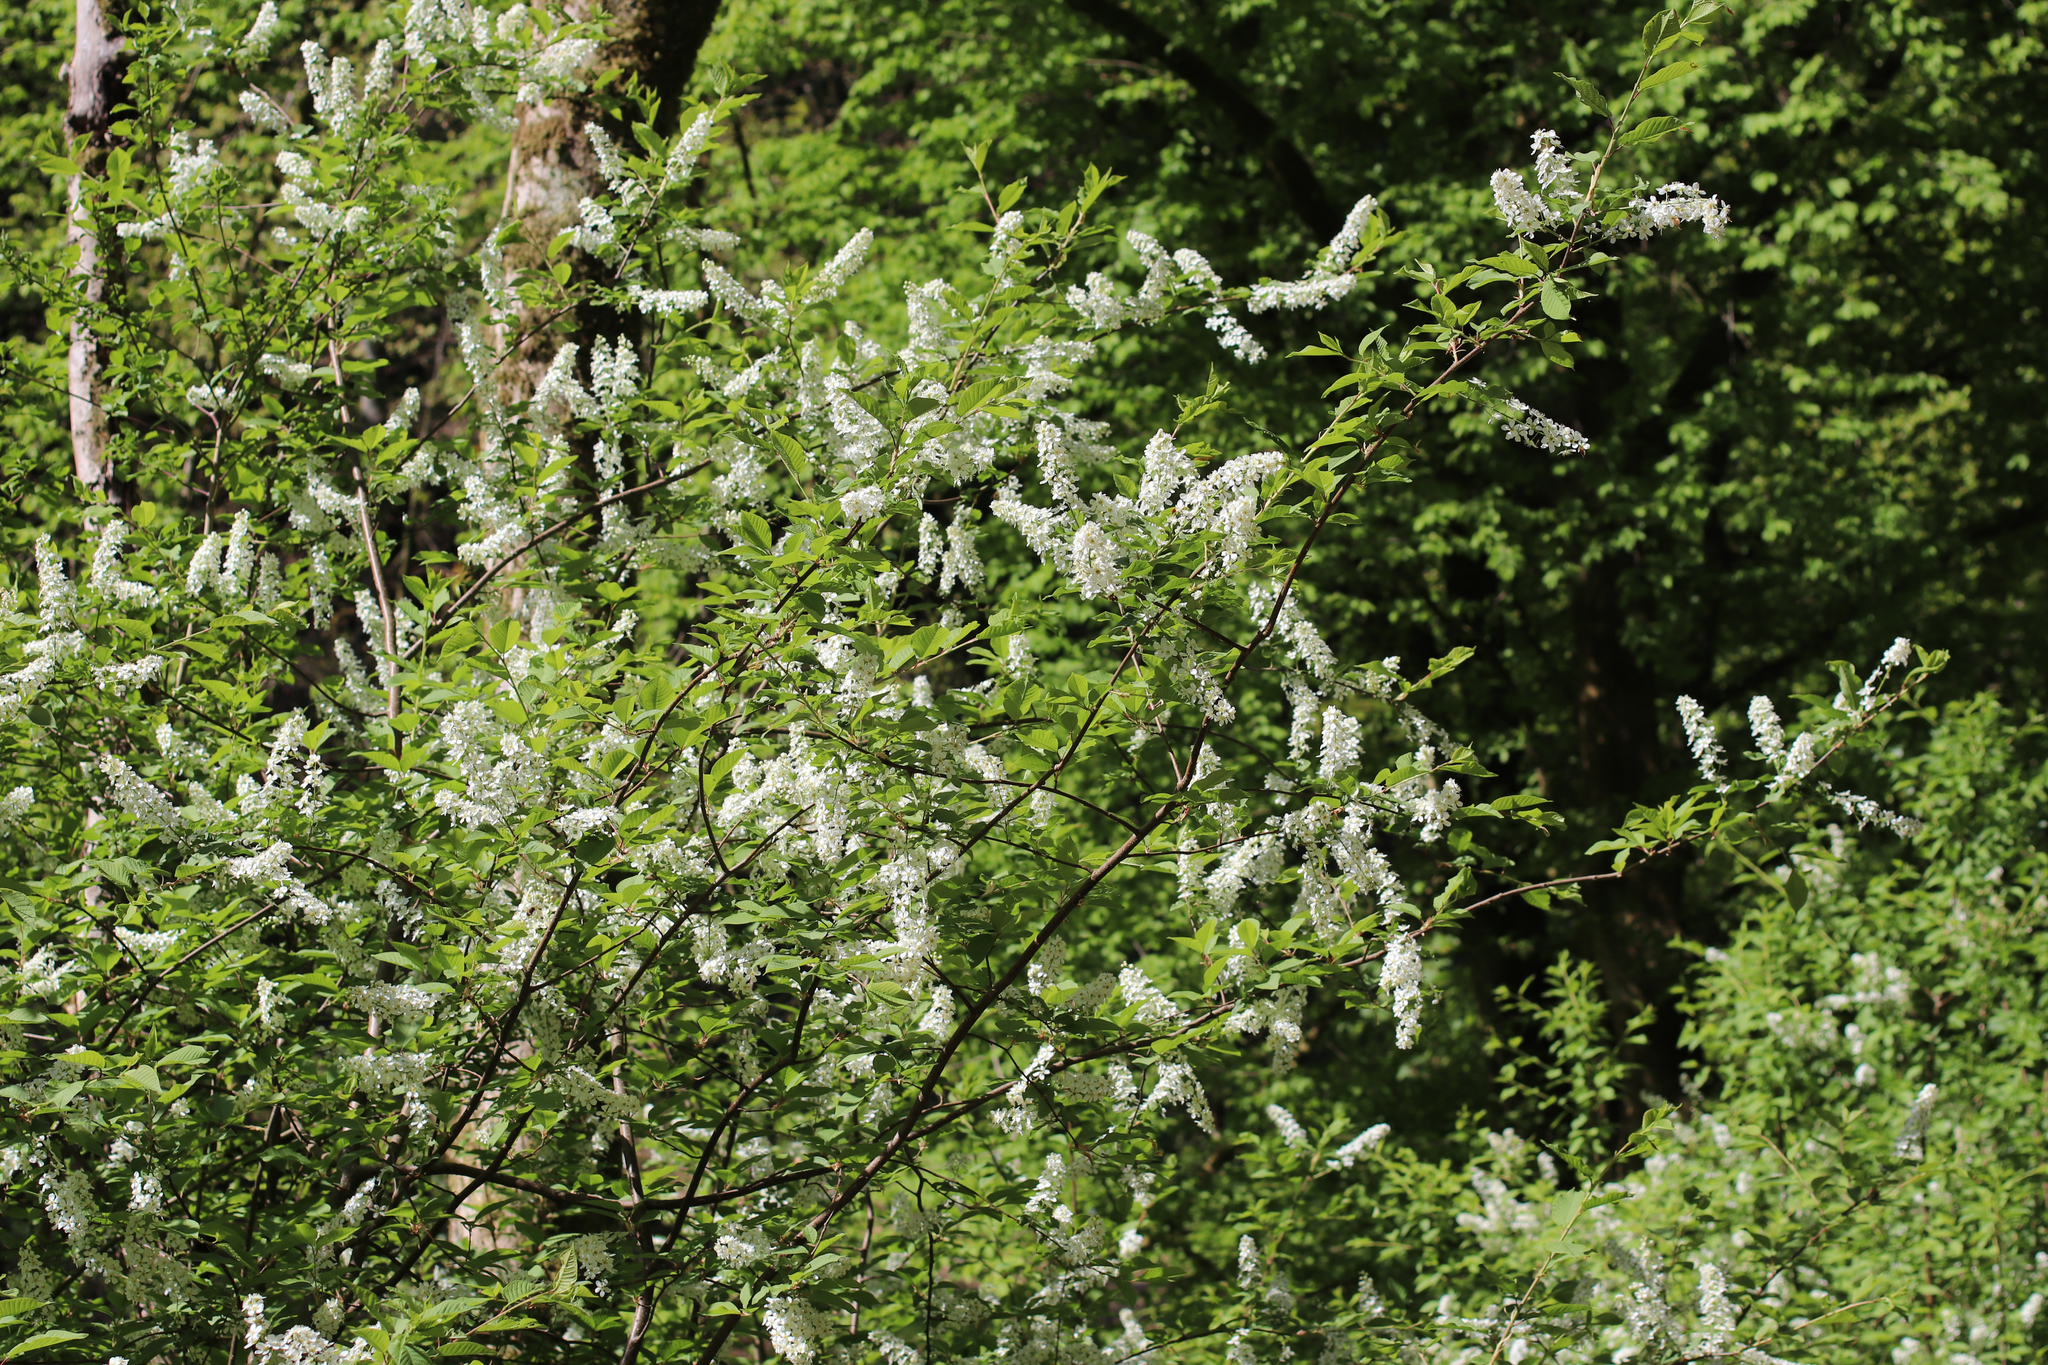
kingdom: Plantae
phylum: Tracheophyta
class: Magnoliopsida
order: Rosales
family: Rosaceae
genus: Prunus
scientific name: Prunus padus
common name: Bird cherry
